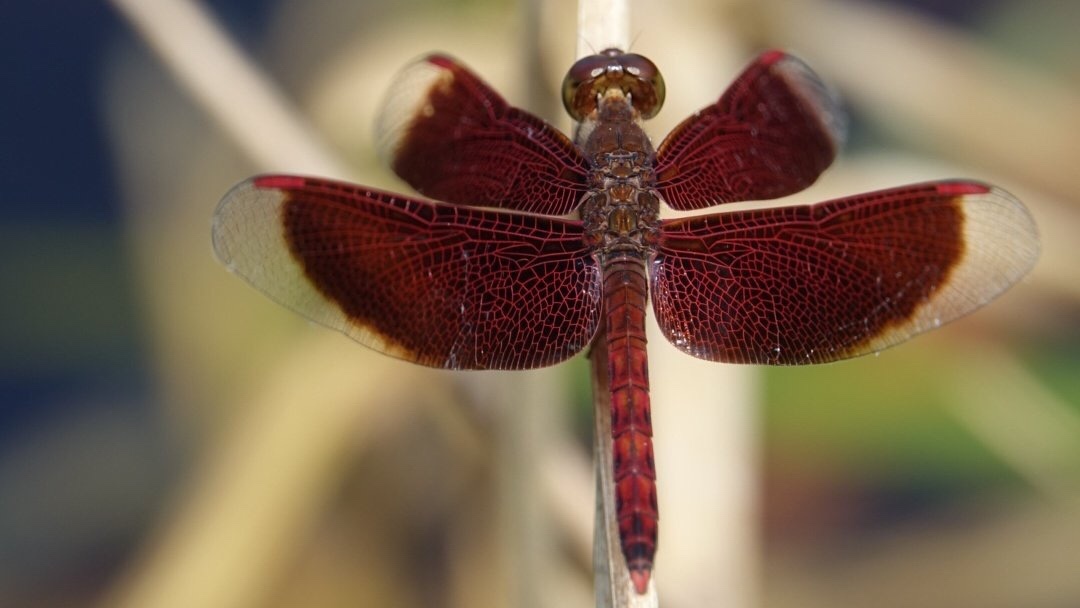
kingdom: Animalia
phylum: Arthropoda
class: Insecta
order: Odonata
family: Libellulidae
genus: Neurothemis
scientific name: Neurothemis fluctuans
